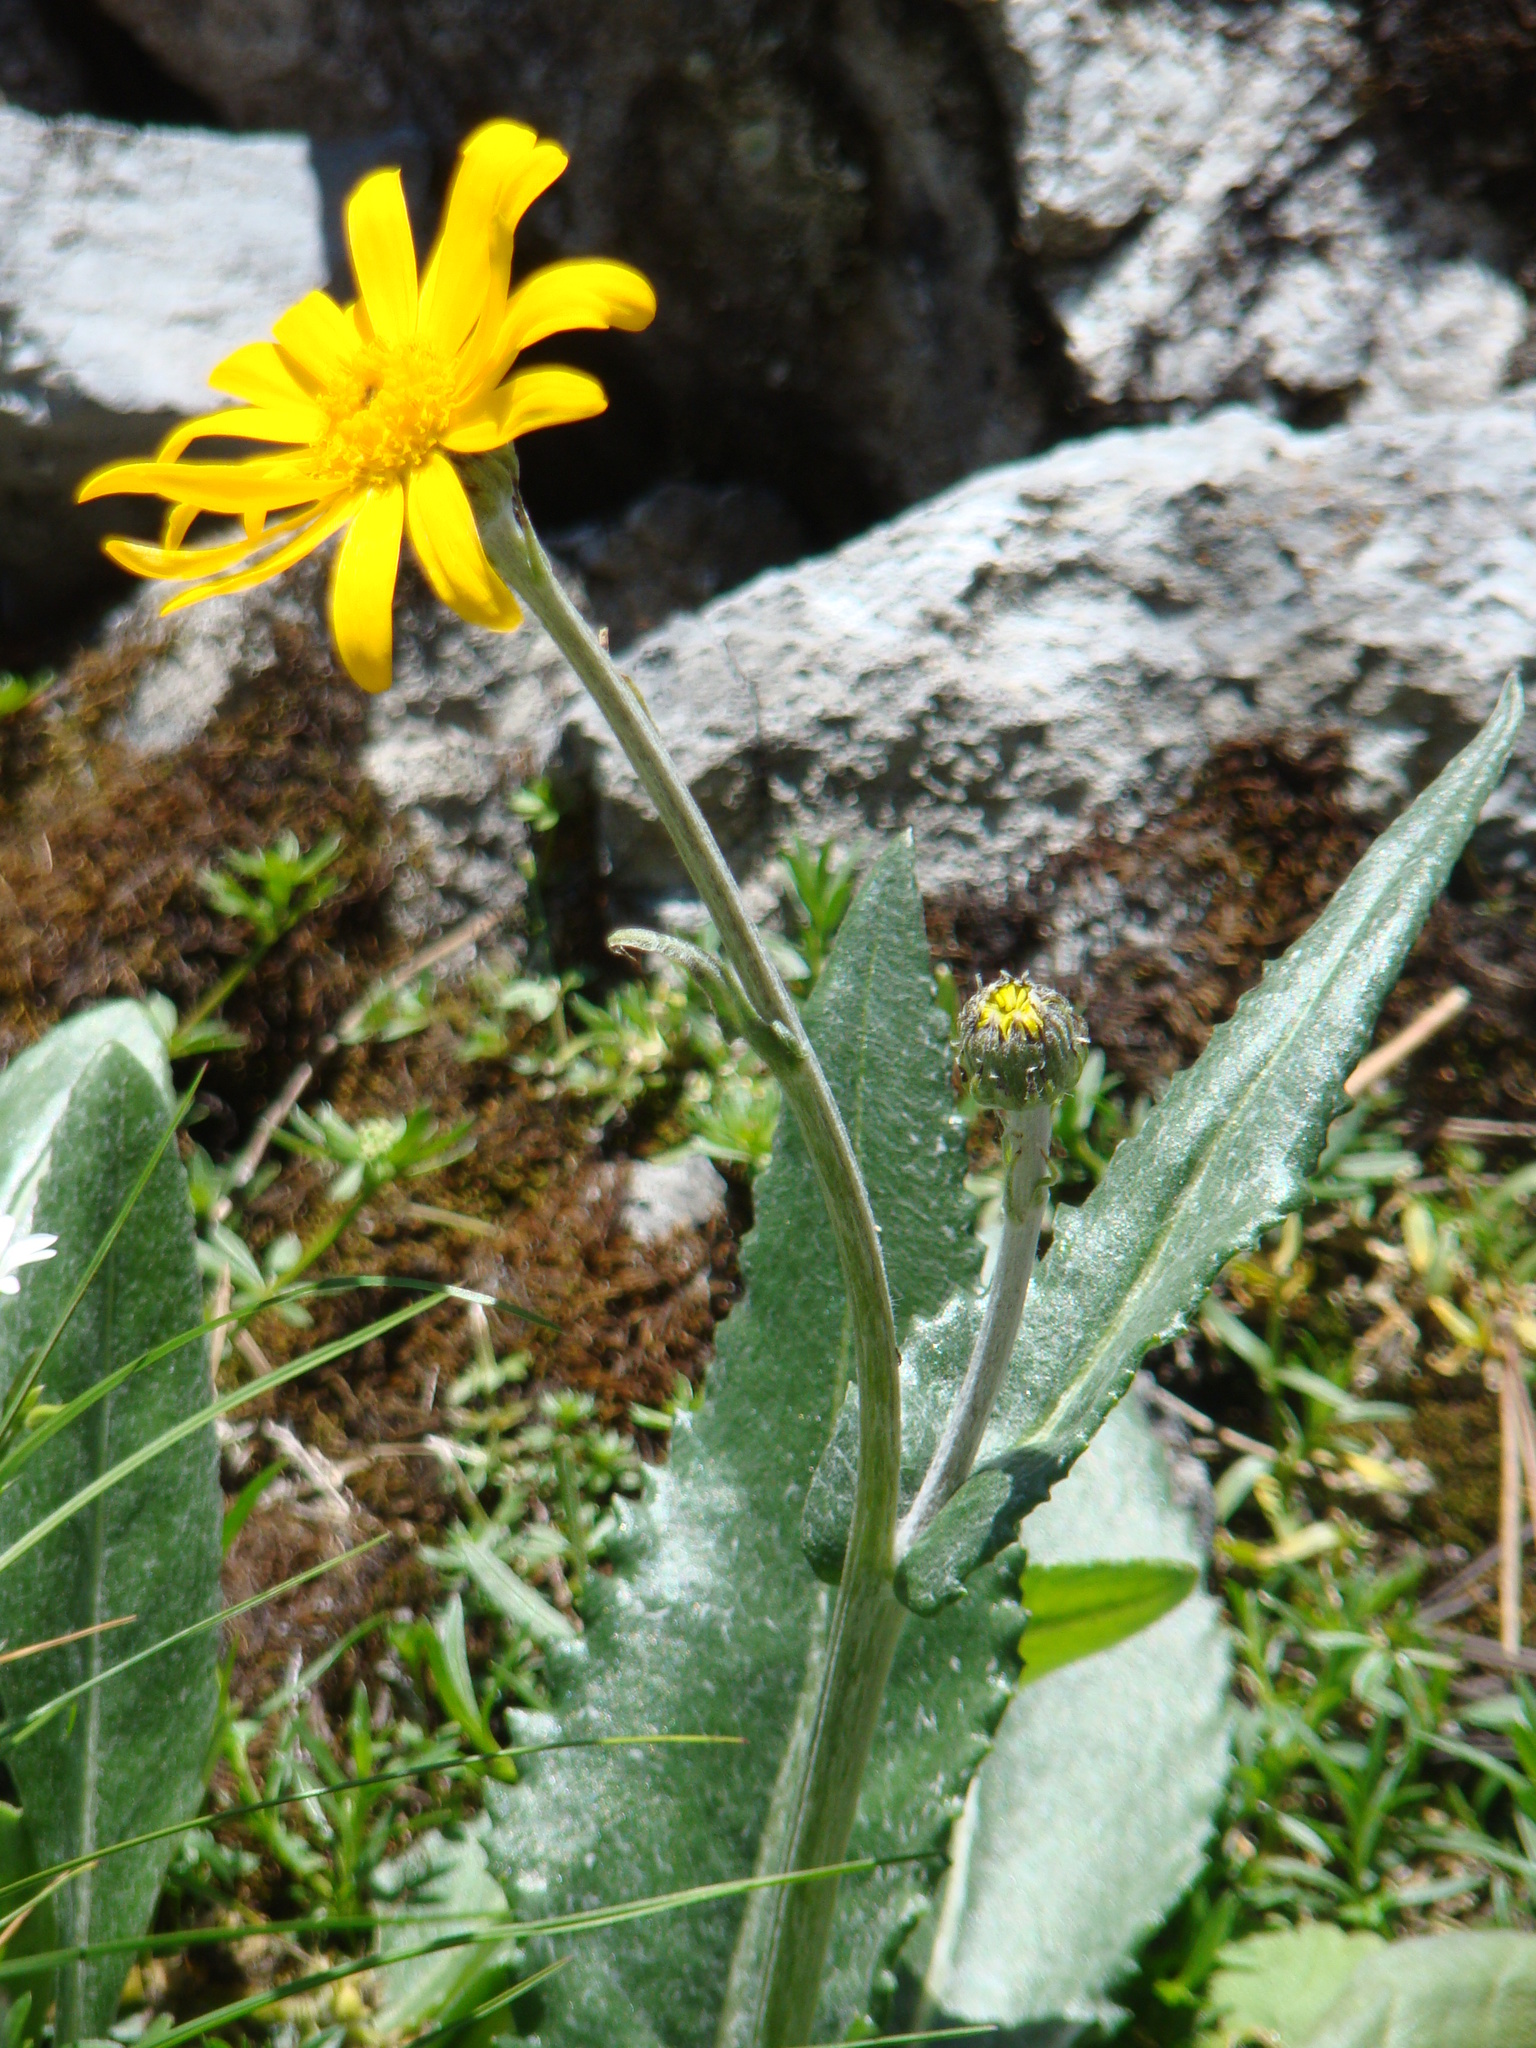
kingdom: Plantae
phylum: Tracheophyta
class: Magnoliopsida
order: Asterales
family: Asteraceae
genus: Senecio
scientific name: Senecio doronicum
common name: Chamois ragwort
